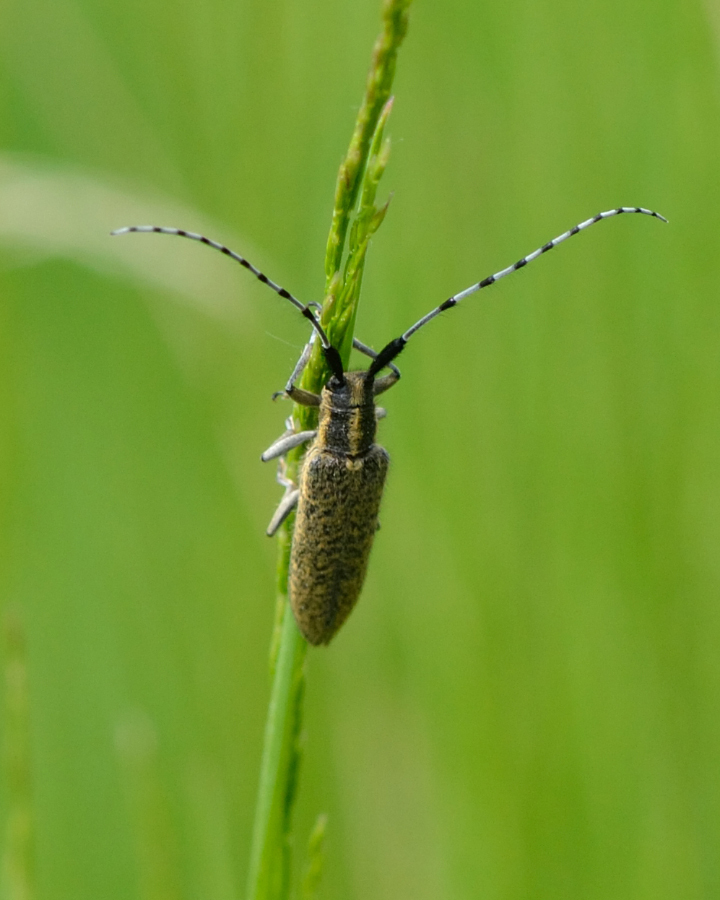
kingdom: Animalia
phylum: Arthropoda
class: Insecta
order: Coleoptera
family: Cerambycidae
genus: Agapanthia
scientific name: Agapanthia villosoviridescens
